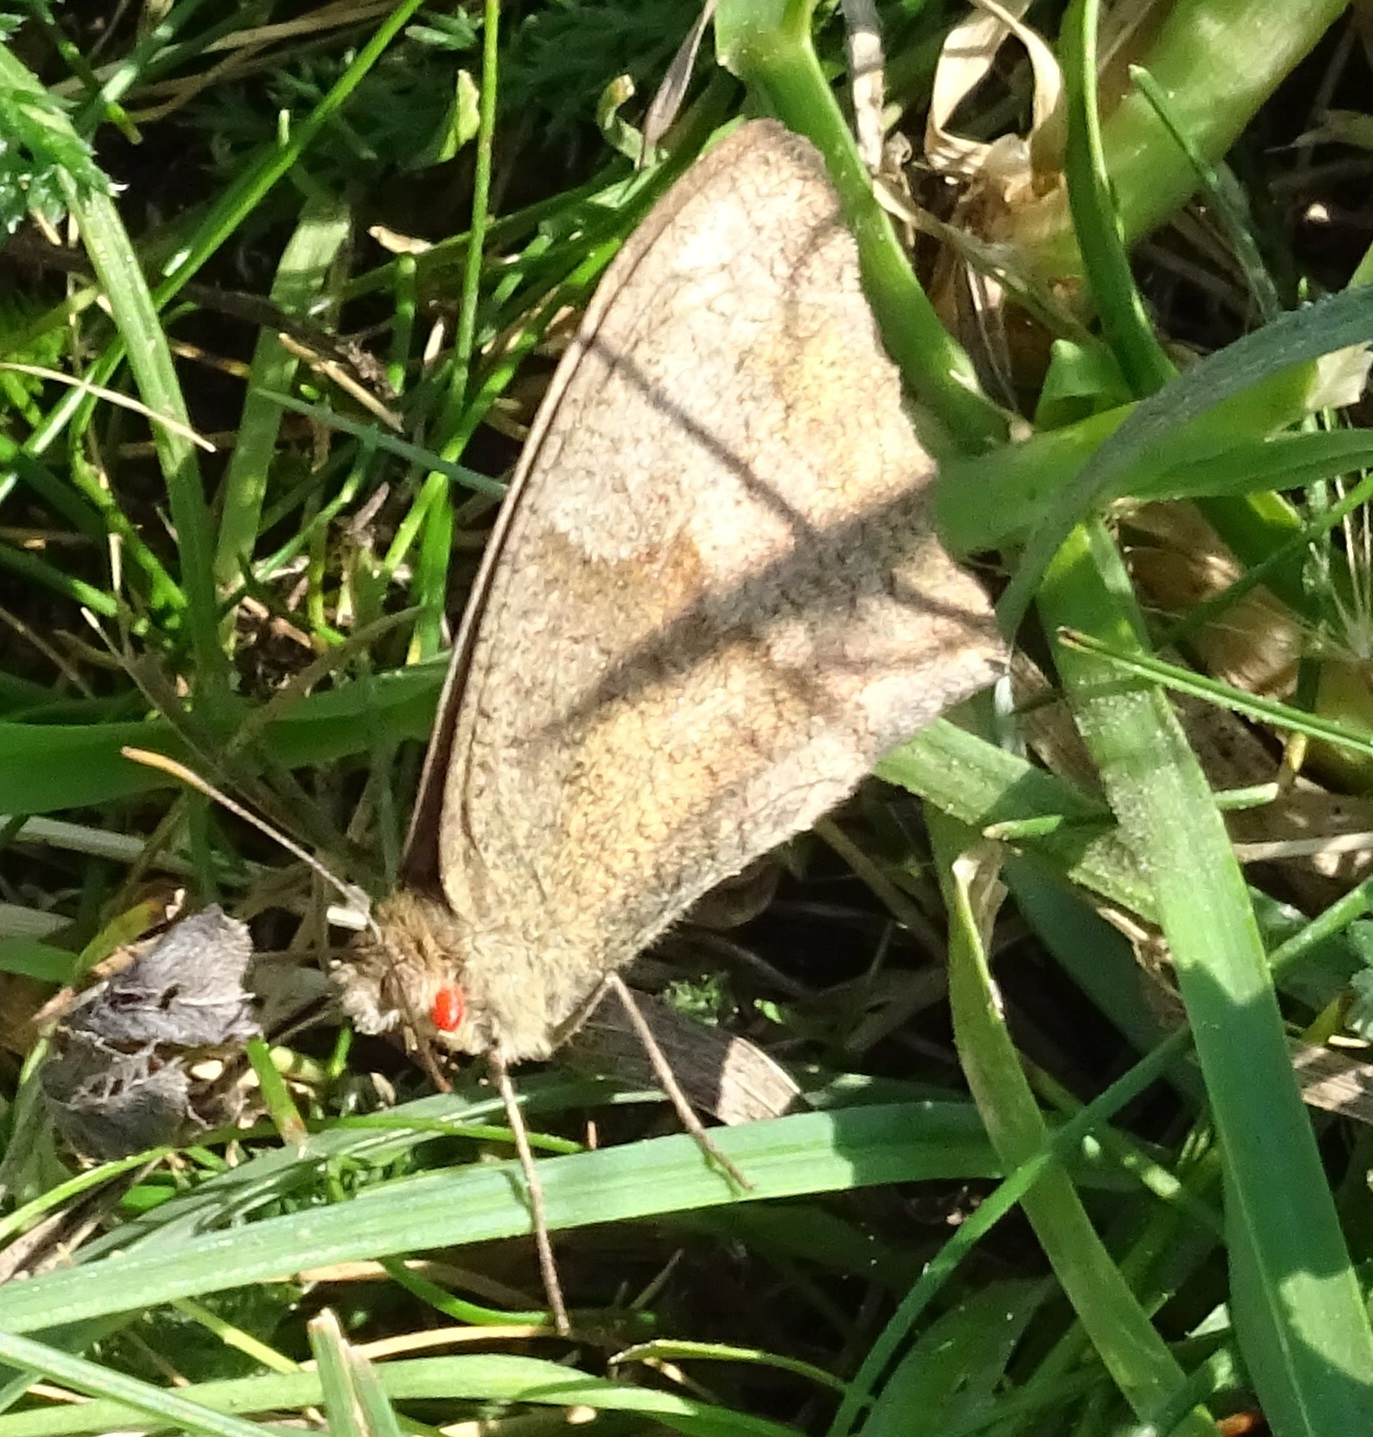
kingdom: Animalia
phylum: Arthropoda
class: Insecta
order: Lepidoptera
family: Nymphalidae
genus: Maniola
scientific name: Maniola jurtina
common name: Meadow brown
